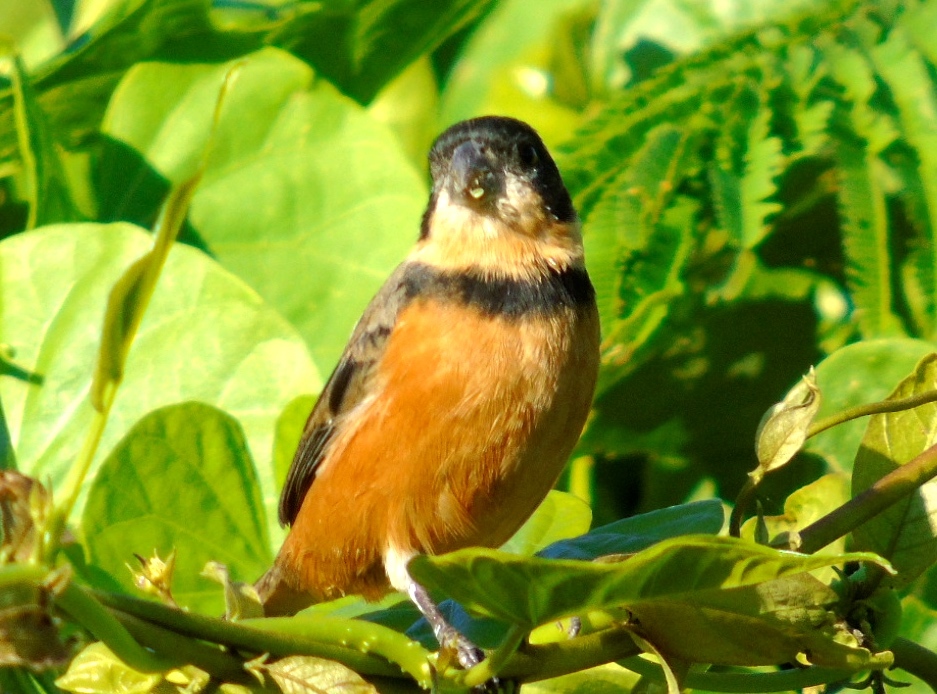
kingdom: Animalia
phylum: Chordata
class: Aves
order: Passeriformes
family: Thraupidae
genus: Sporophila
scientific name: Sporophila torqueola
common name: White-collared seedeater
